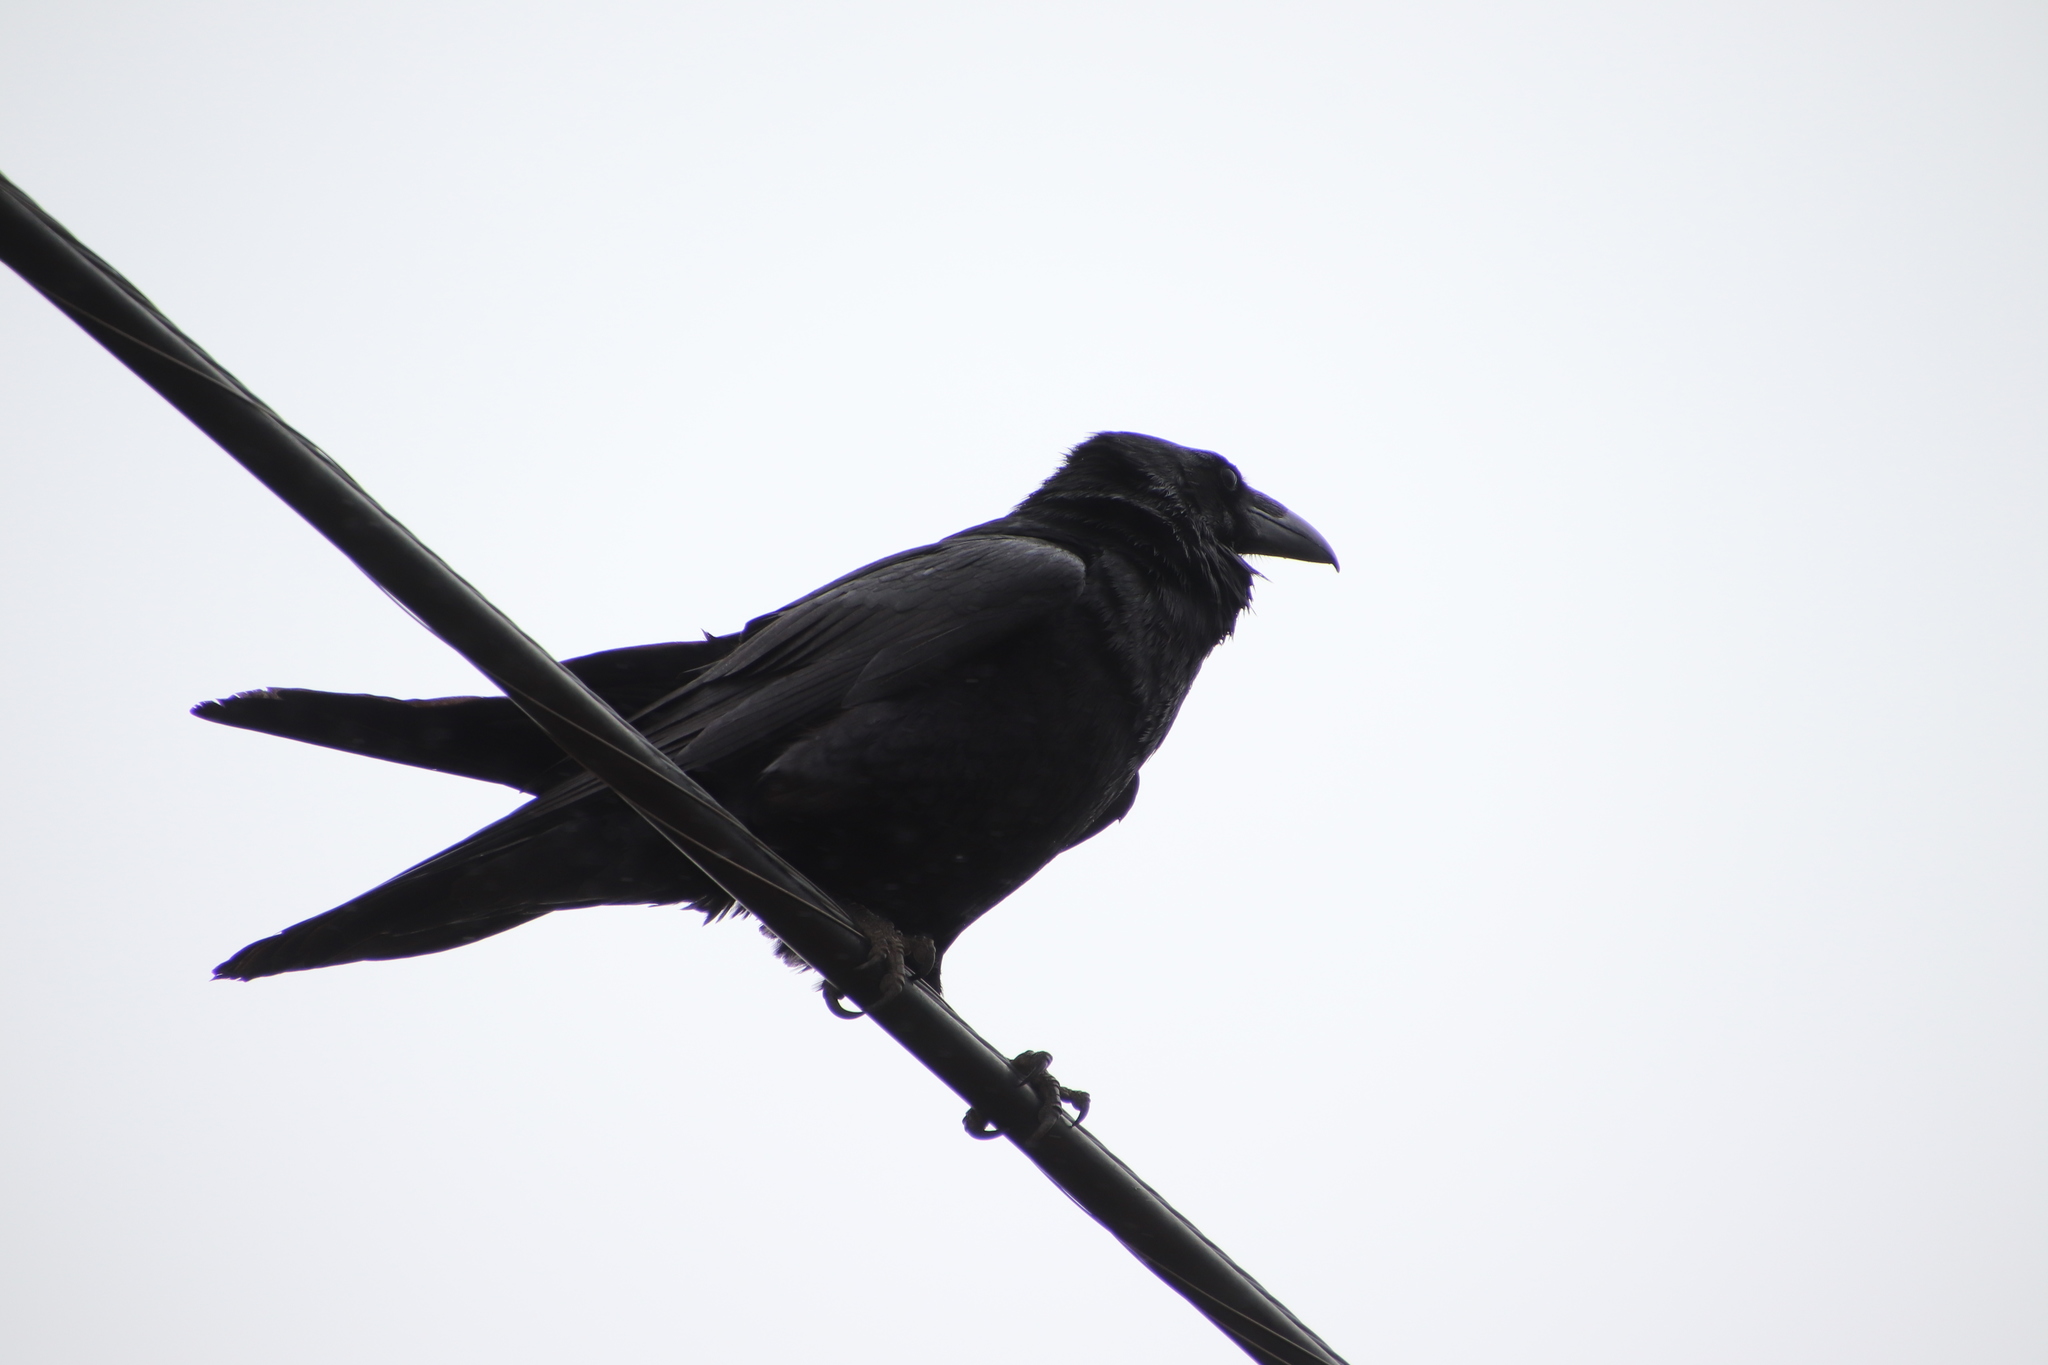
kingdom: Animalia
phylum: Chordata
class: Aves
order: Passeriformes
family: Corvidae
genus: Corvus
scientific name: Corvus corax
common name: Common raven
